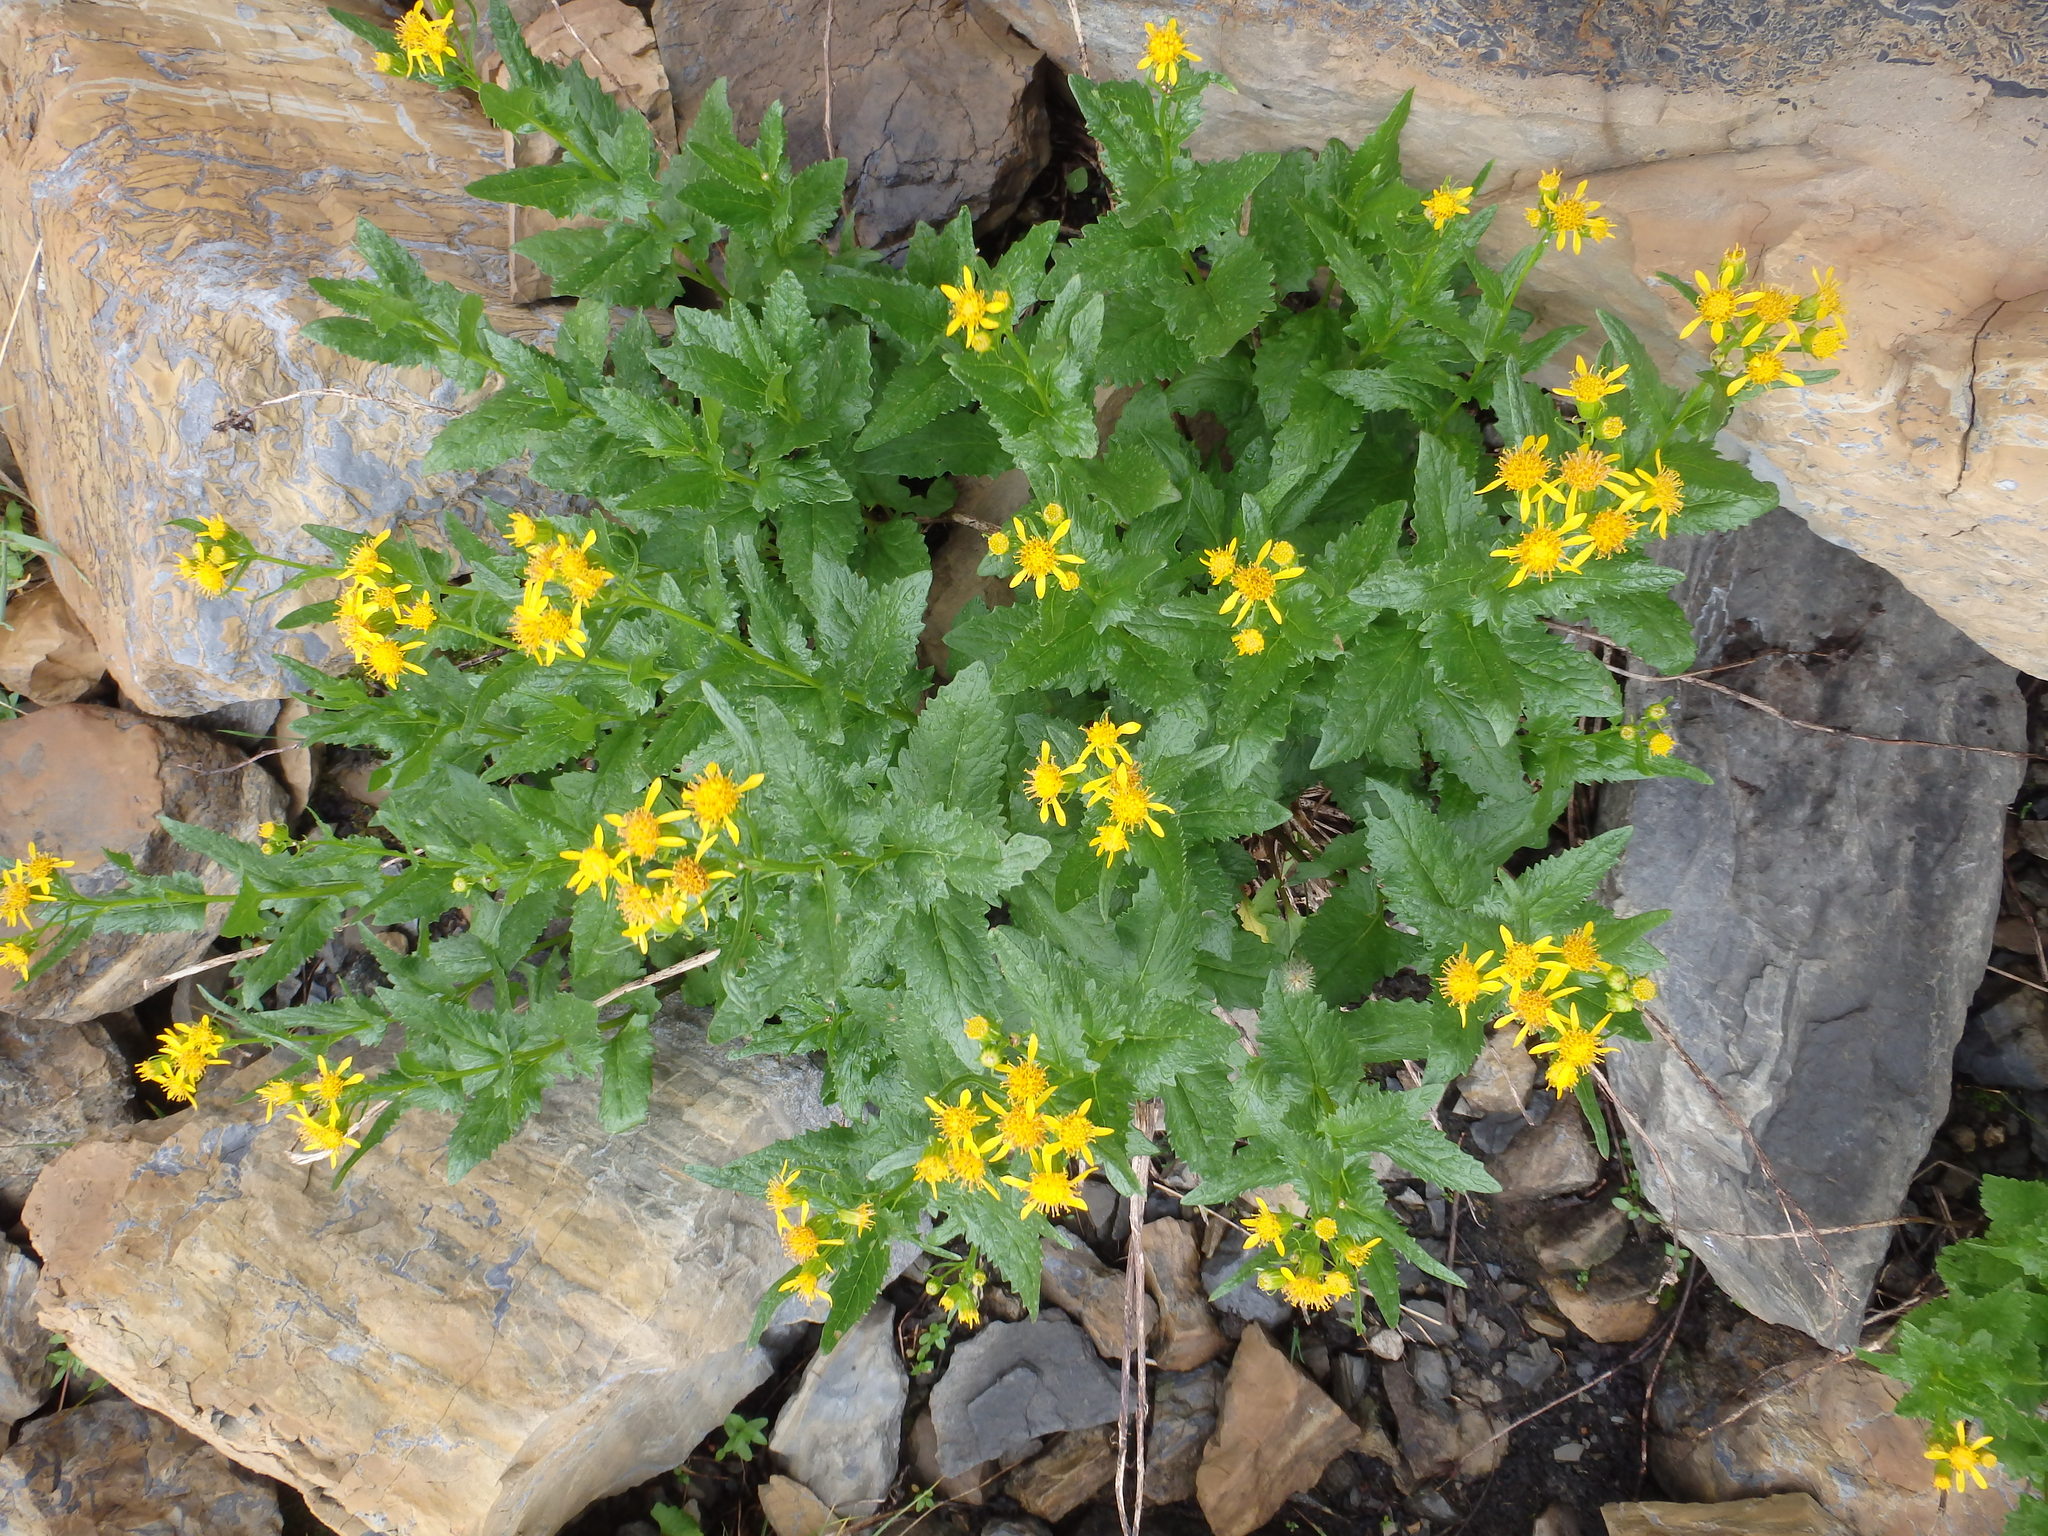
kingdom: Plantae
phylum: Tracheophyta
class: Magnoliopsida
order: Asterales
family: Asteraceae
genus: Senecio
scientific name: Senecio triangularis
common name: Arrowleaf butterweed
